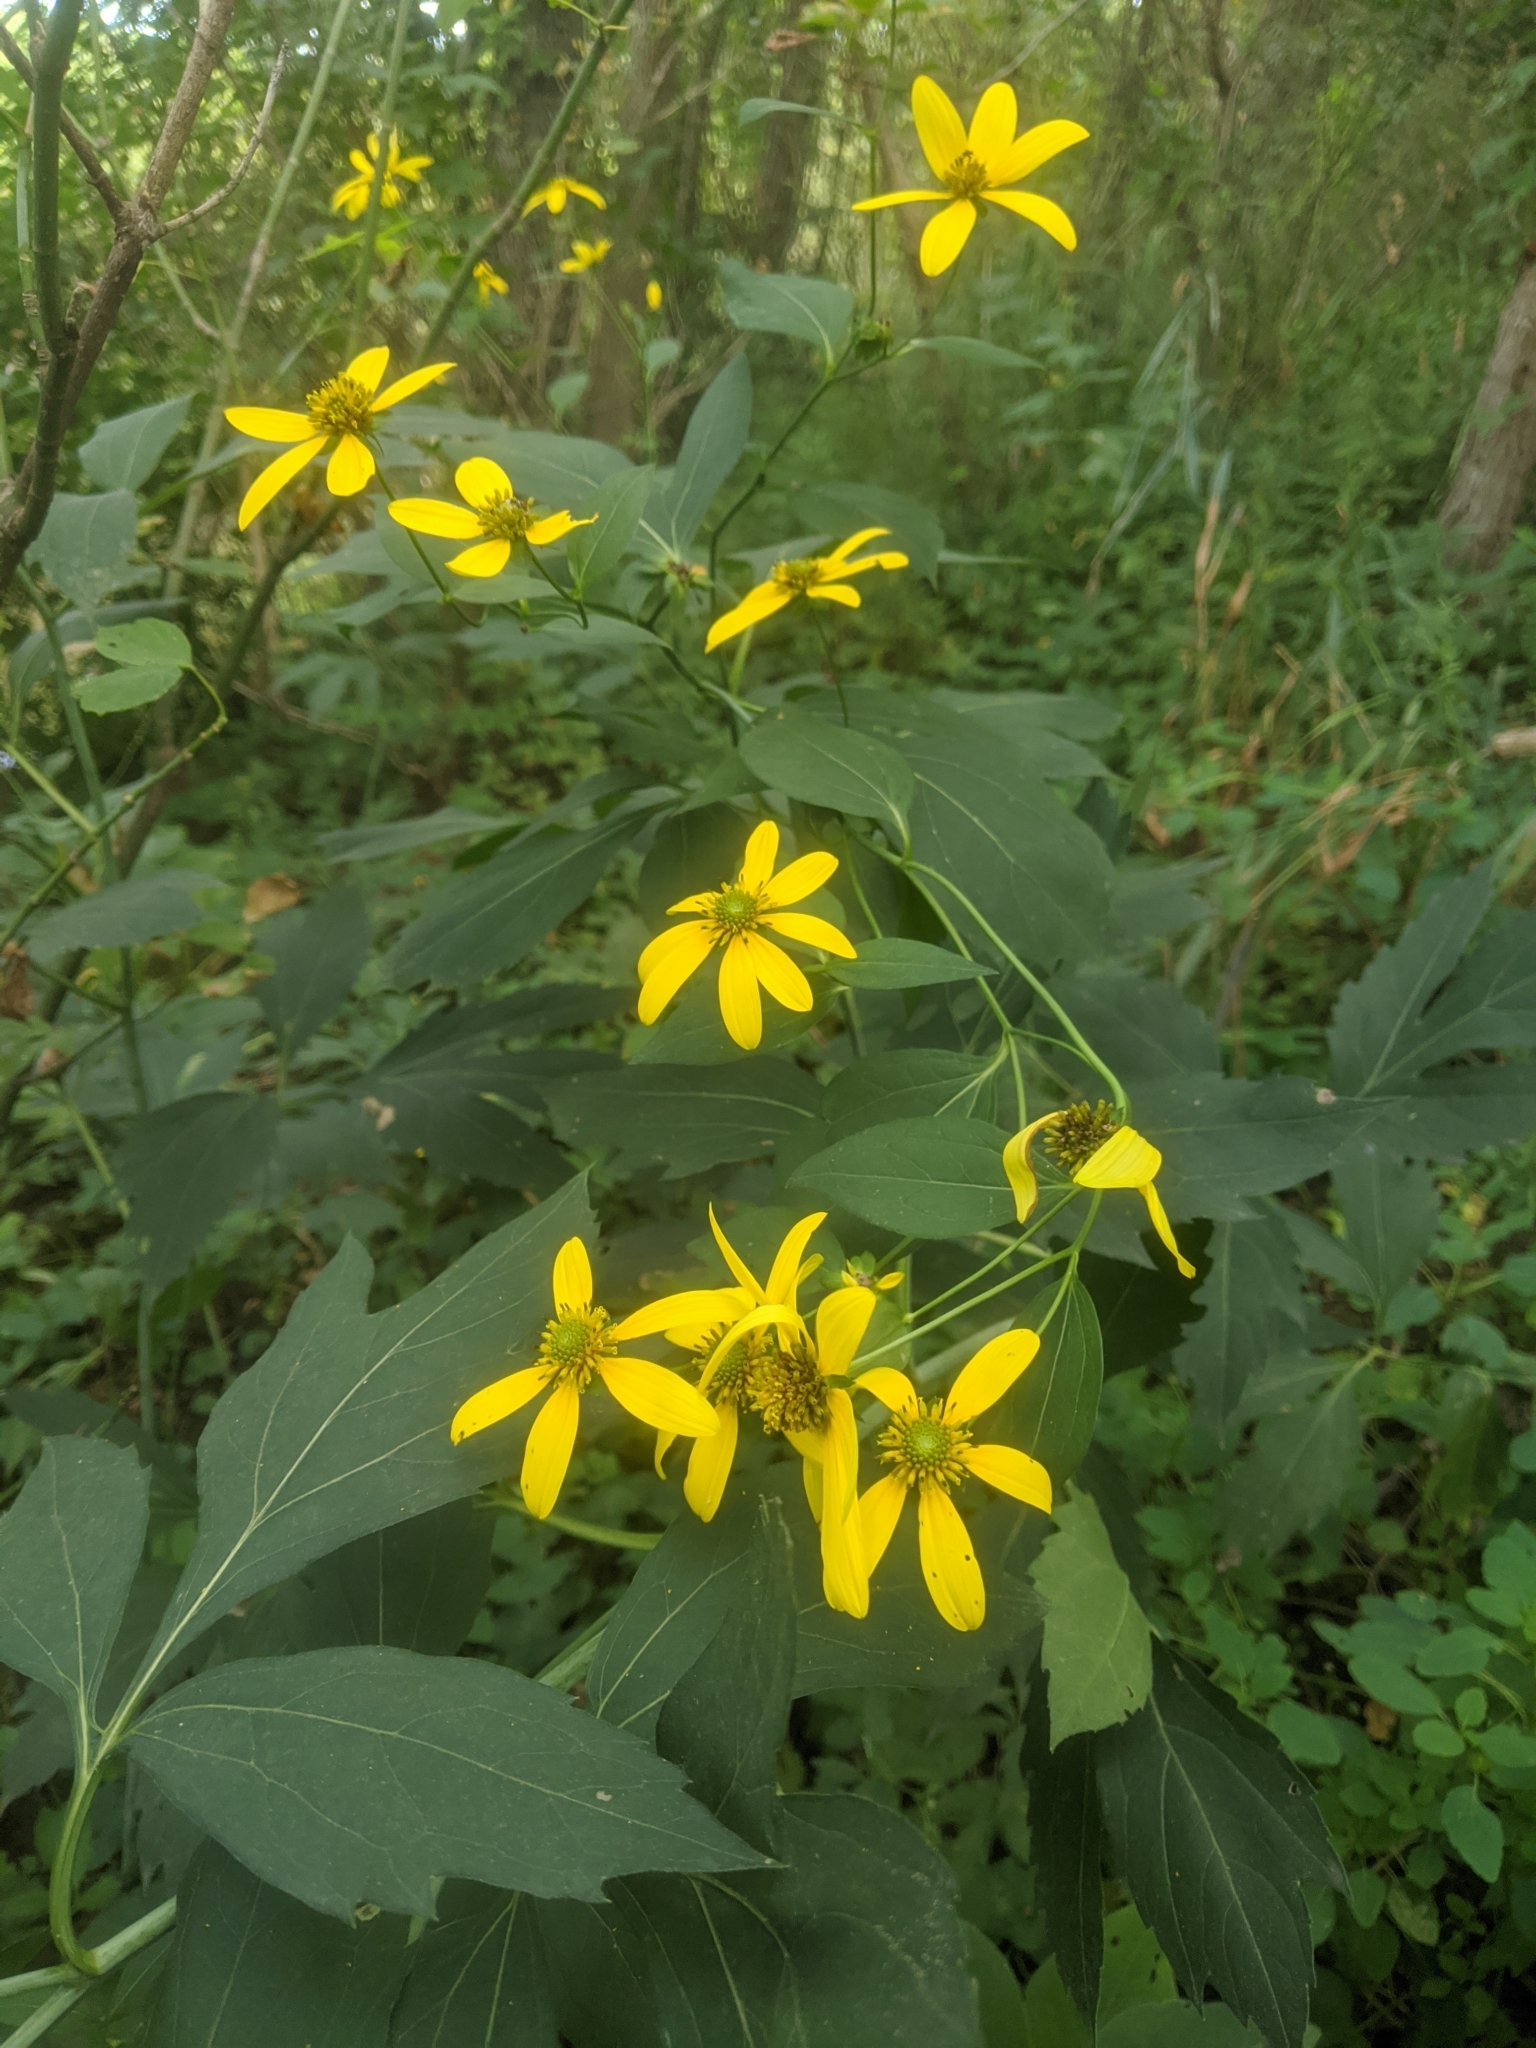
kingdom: Plantae
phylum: Tracheophyta
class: Magnoliopsida
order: Asterales
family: Asteraceae
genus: Rudbeckia
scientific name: Rudbeckia laciniata
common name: Coneflower
